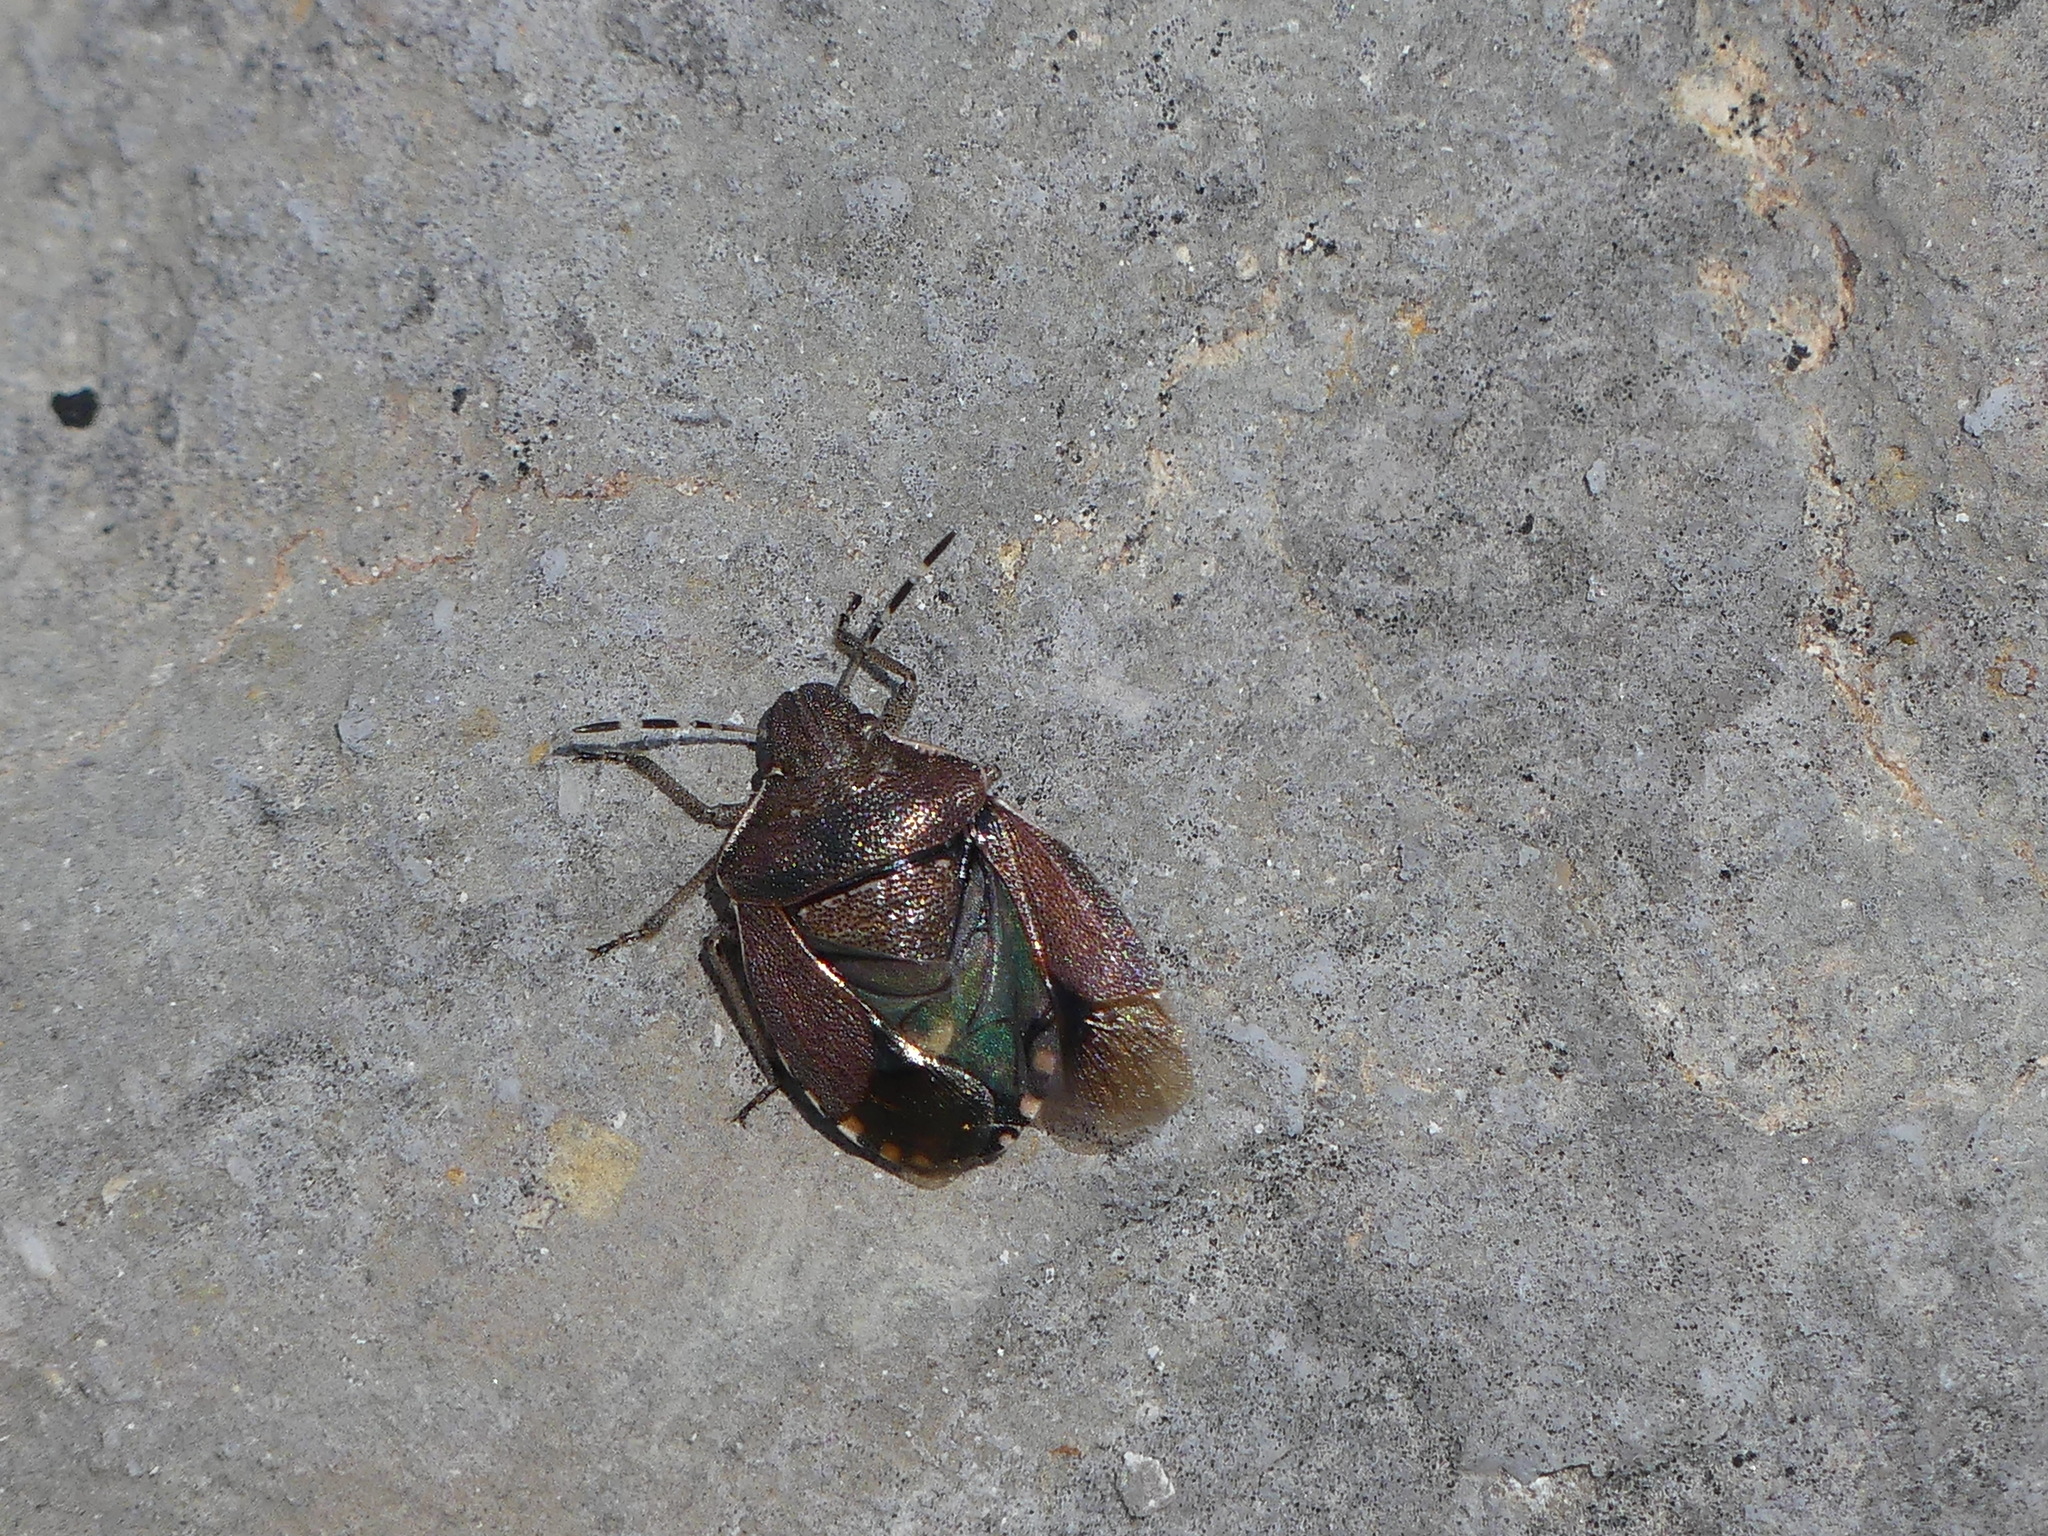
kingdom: Animalia
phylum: Arthropoda
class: Insecta
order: Hemiptera
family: Pentatomidae
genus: Holcostethus
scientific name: Holcostethus sphacelatus
